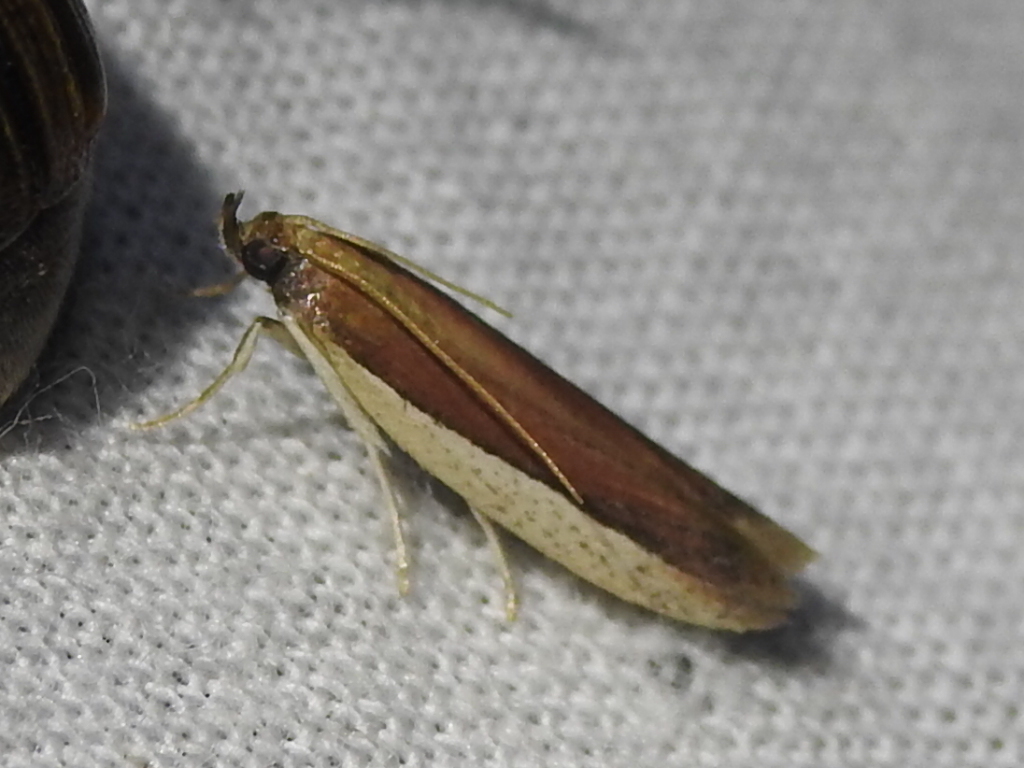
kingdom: Animalia
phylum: Arthropoda
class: Insecta
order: Lepidoptera
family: Pyralidae
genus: Tampa
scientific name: Tampa dimediatella
